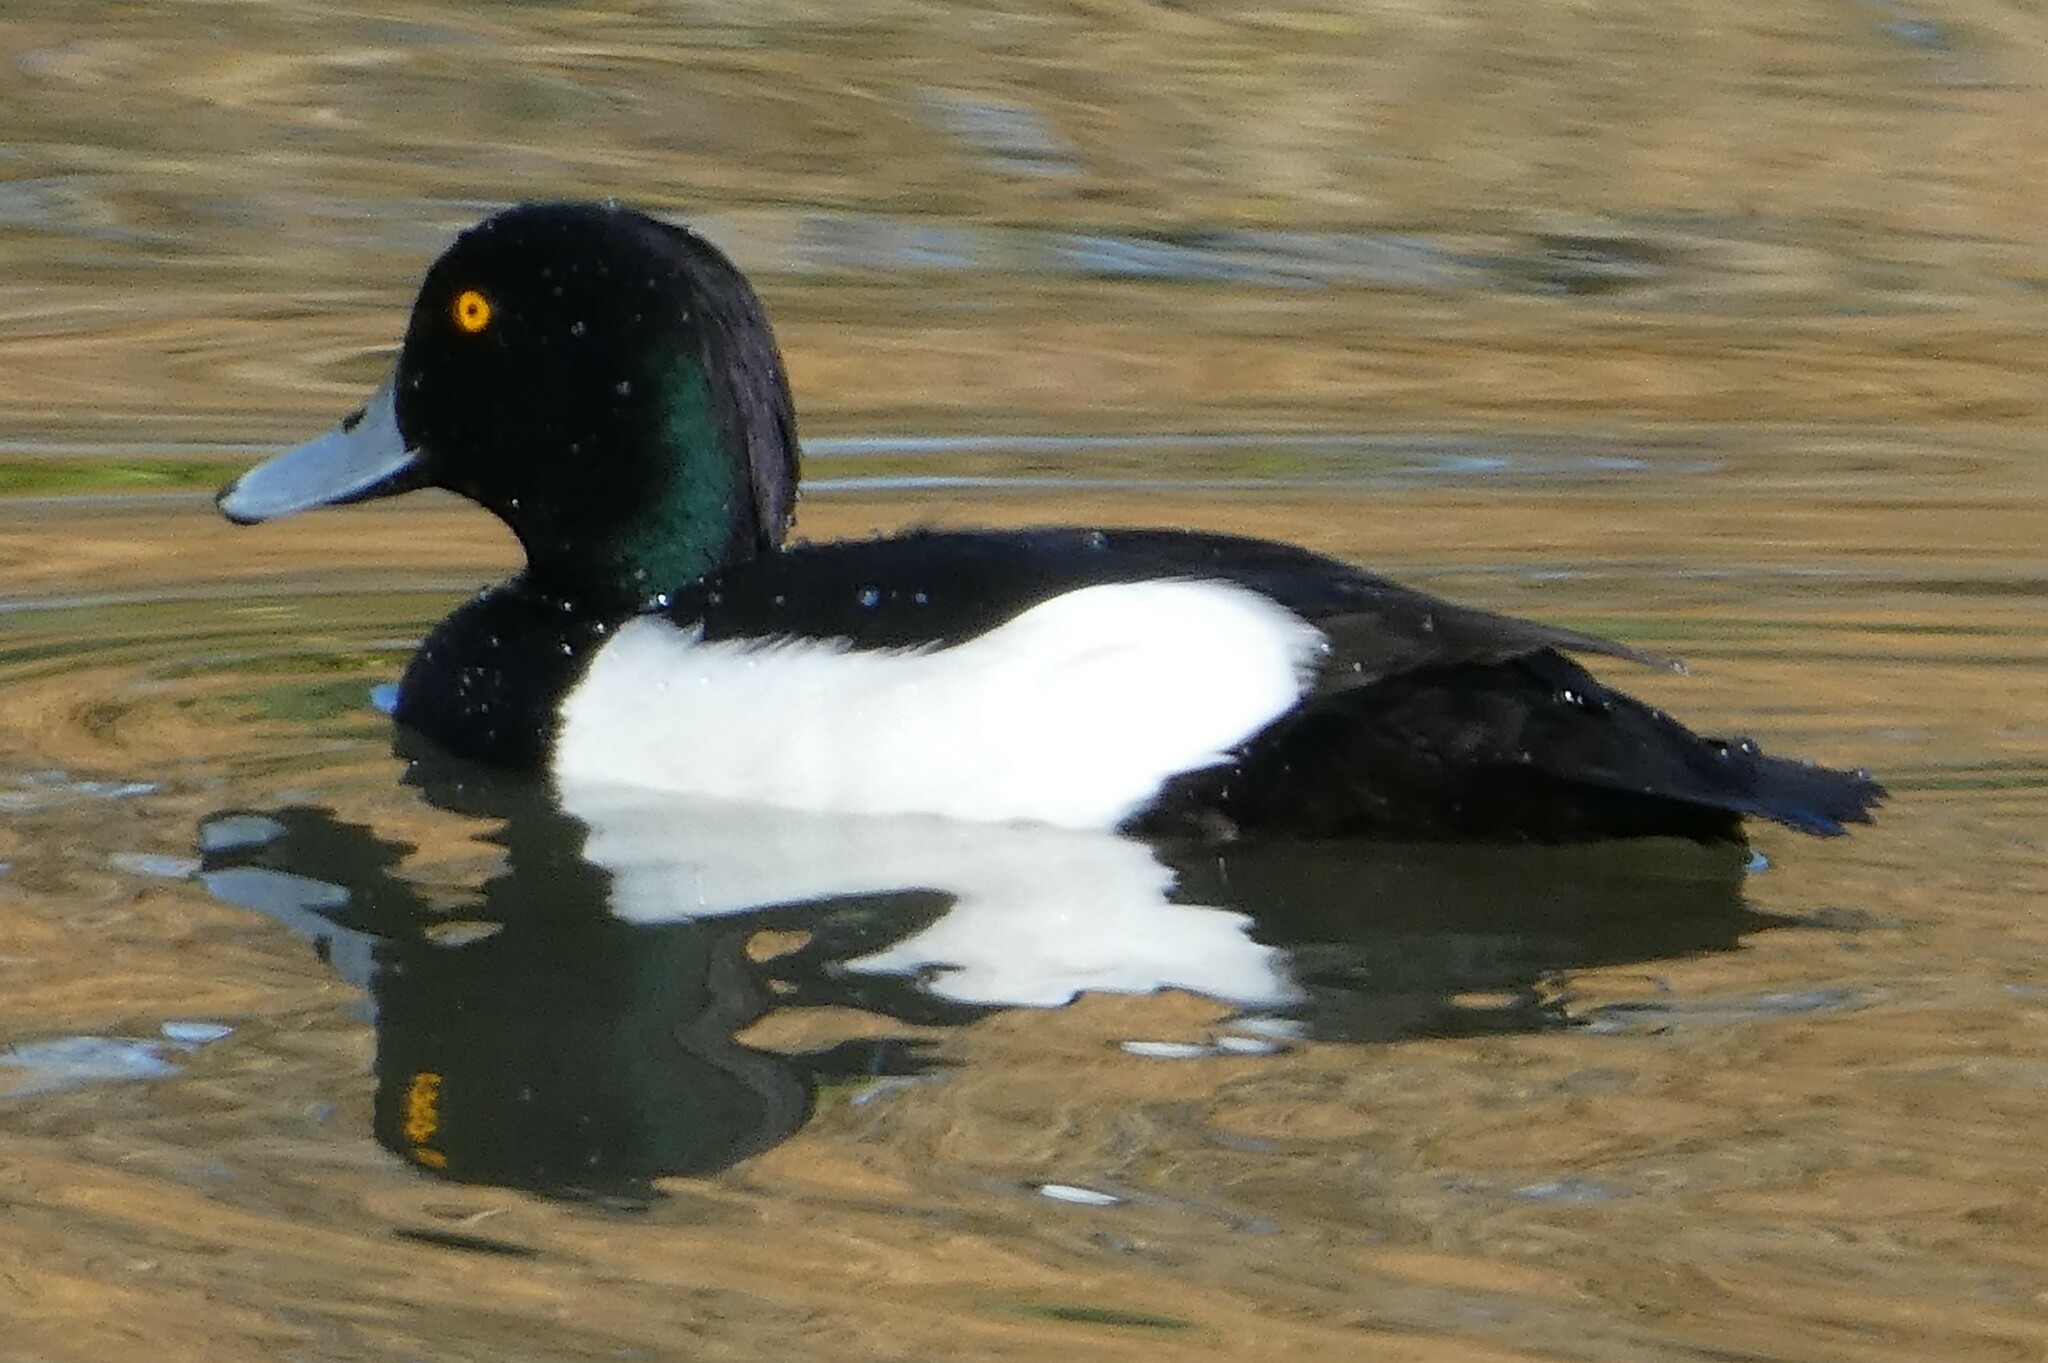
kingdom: Animalia
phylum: Chordata
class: Aves
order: Anseriformes
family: Anatidae
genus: Aythya
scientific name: Aythya fuligula
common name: Tufted duck
